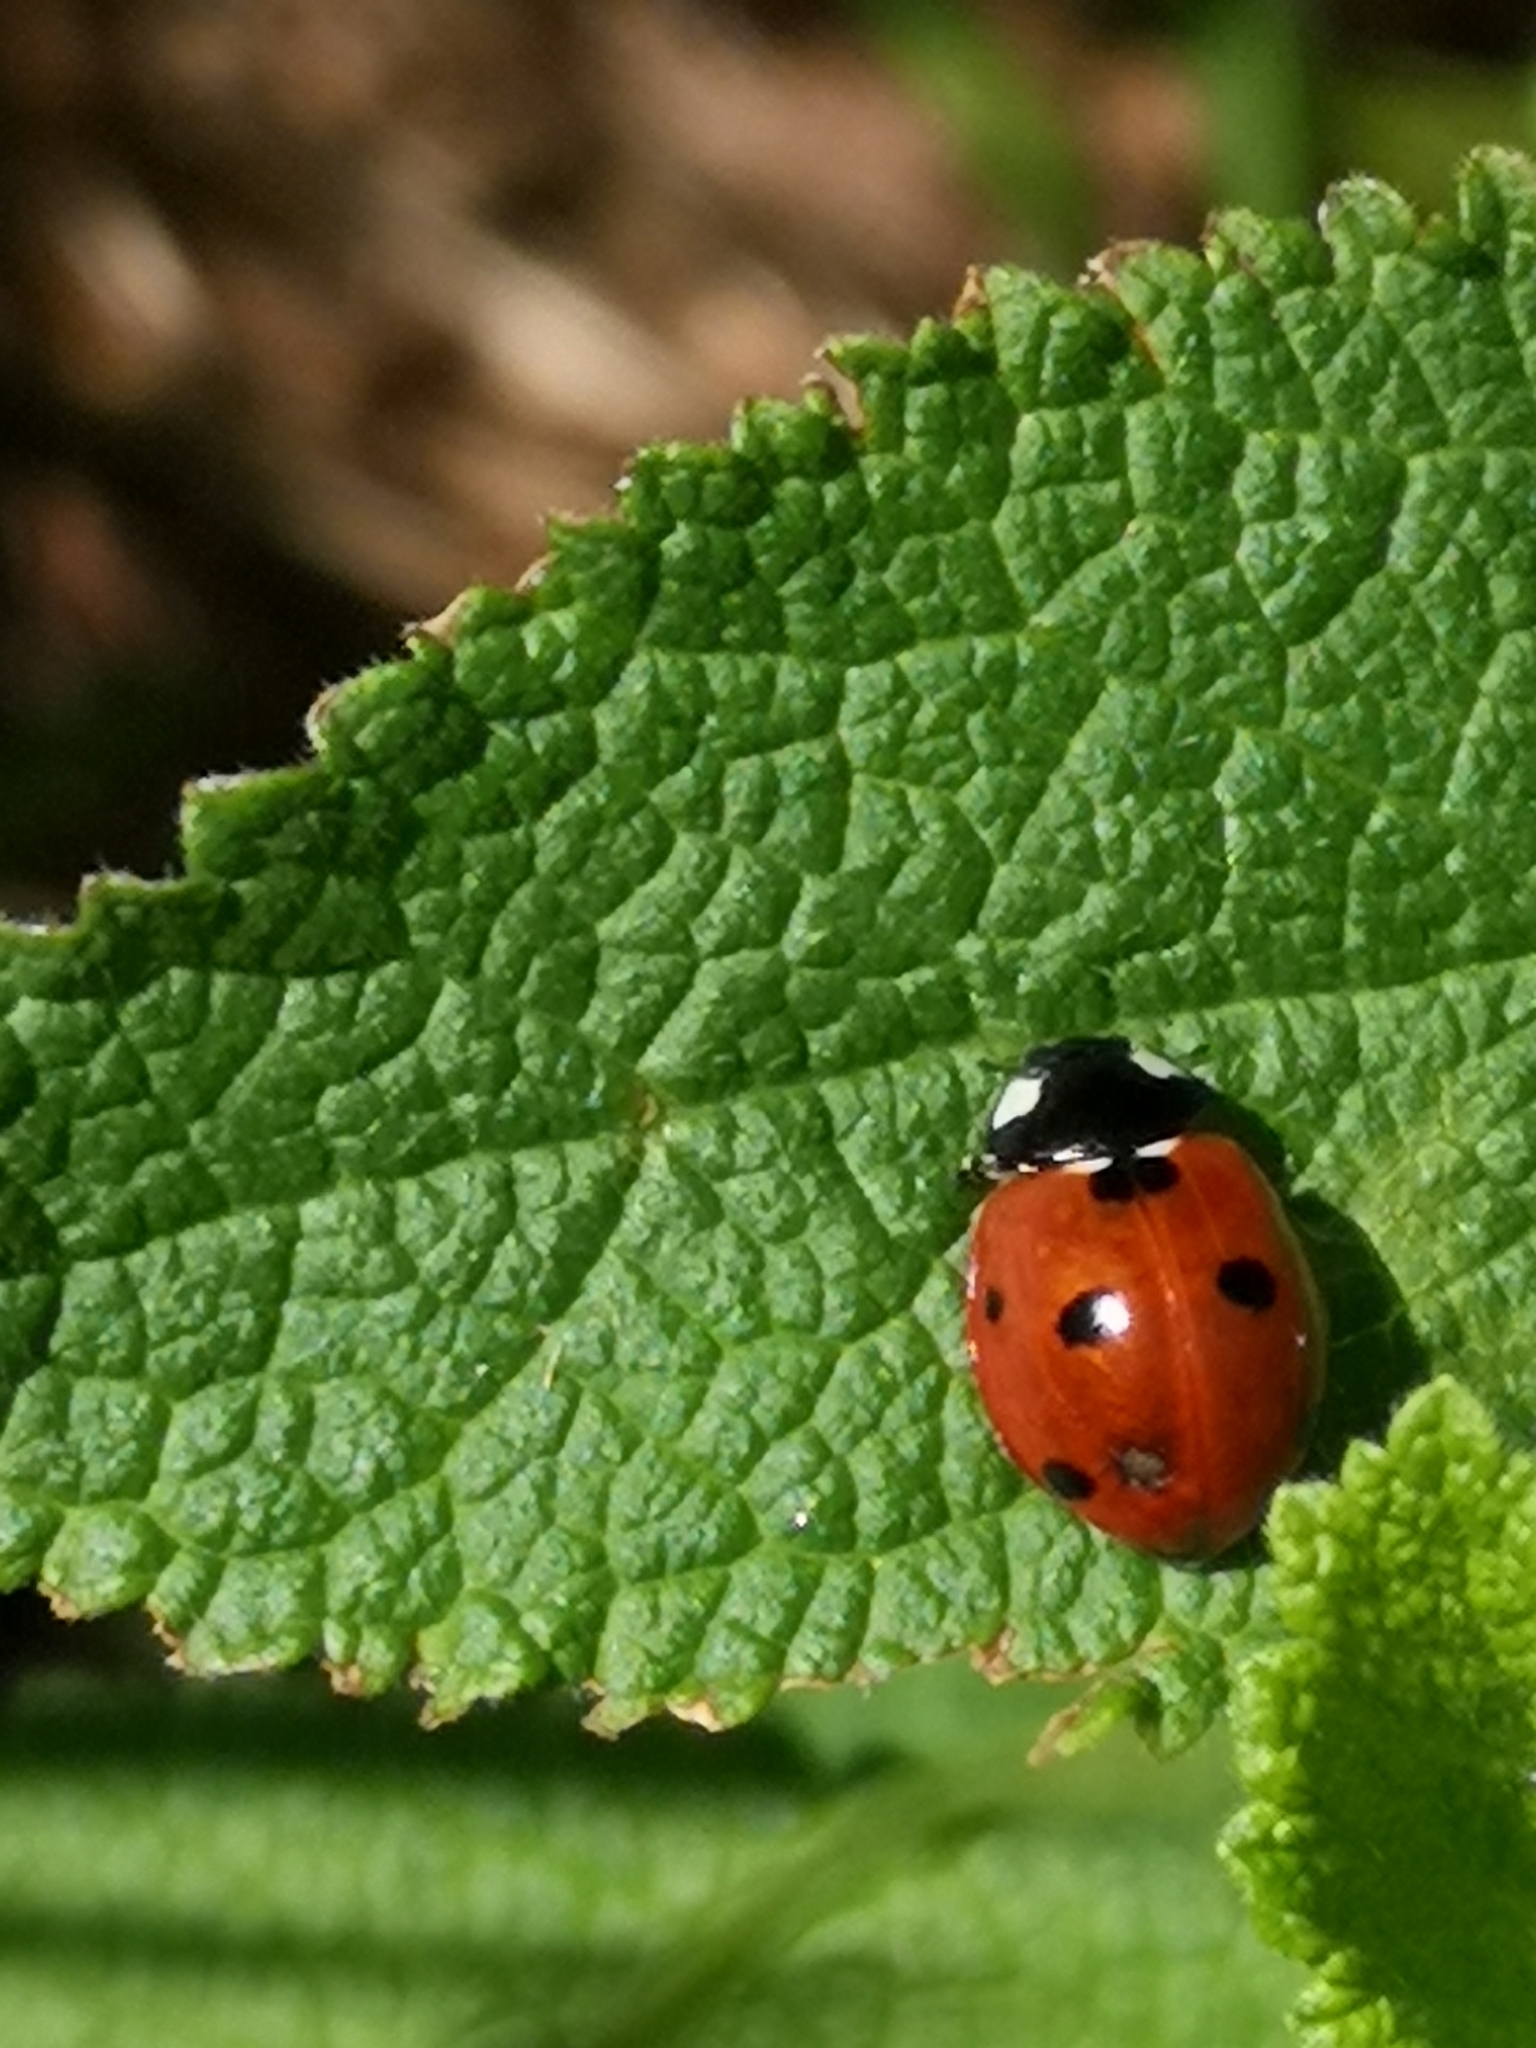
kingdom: Animalia
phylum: Arthropoda
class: Insecta
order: Coleoptera
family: Coccinellidae
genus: Coccinella
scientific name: Coccinella septempunctata
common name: Sevenspotted lady beetle
